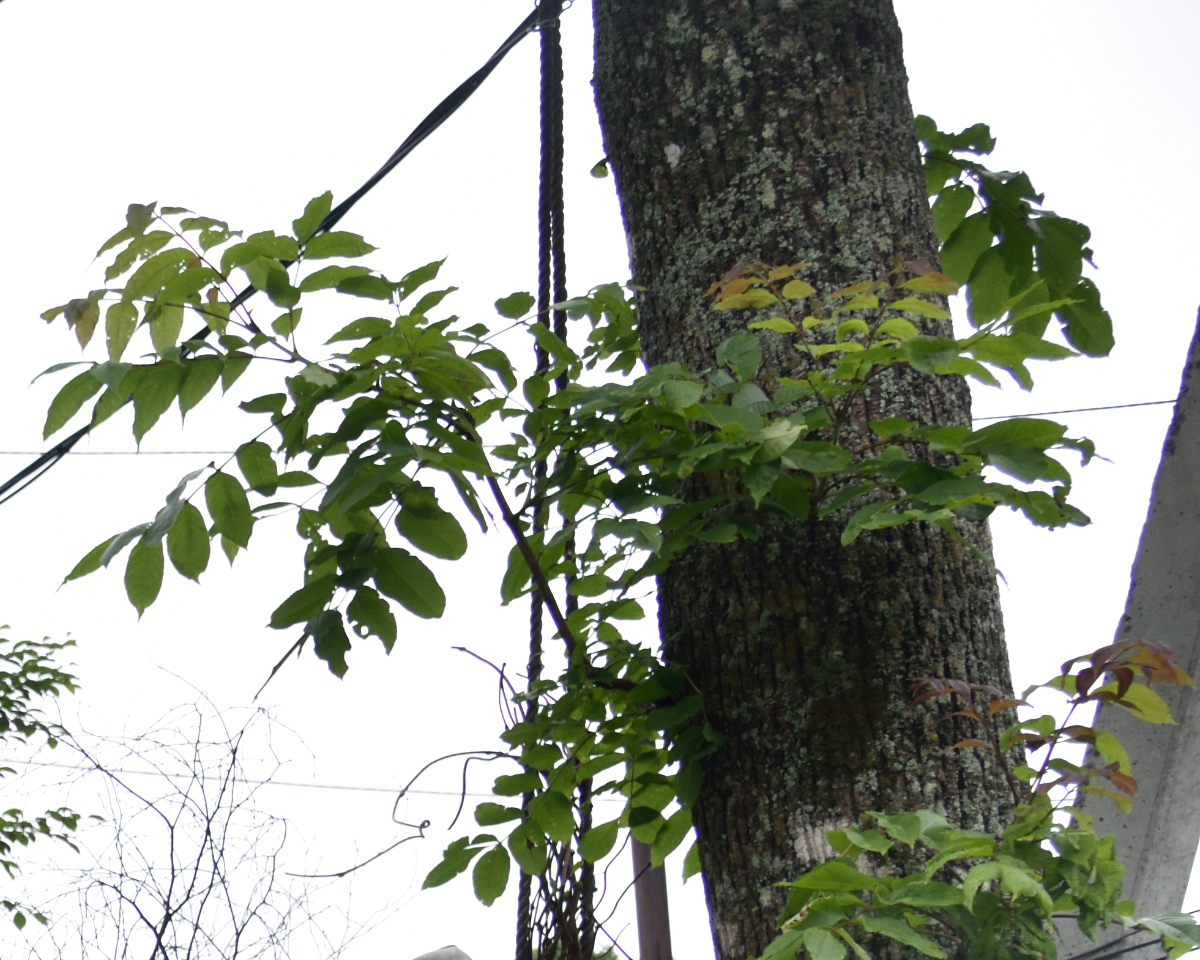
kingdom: Plantae
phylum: Tracheophyta
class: Magnoliopsida
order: Lamiales
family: Oleaceae
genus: Fraxinus
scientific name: Fraxinus mandshurica
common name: Manchurian ash
